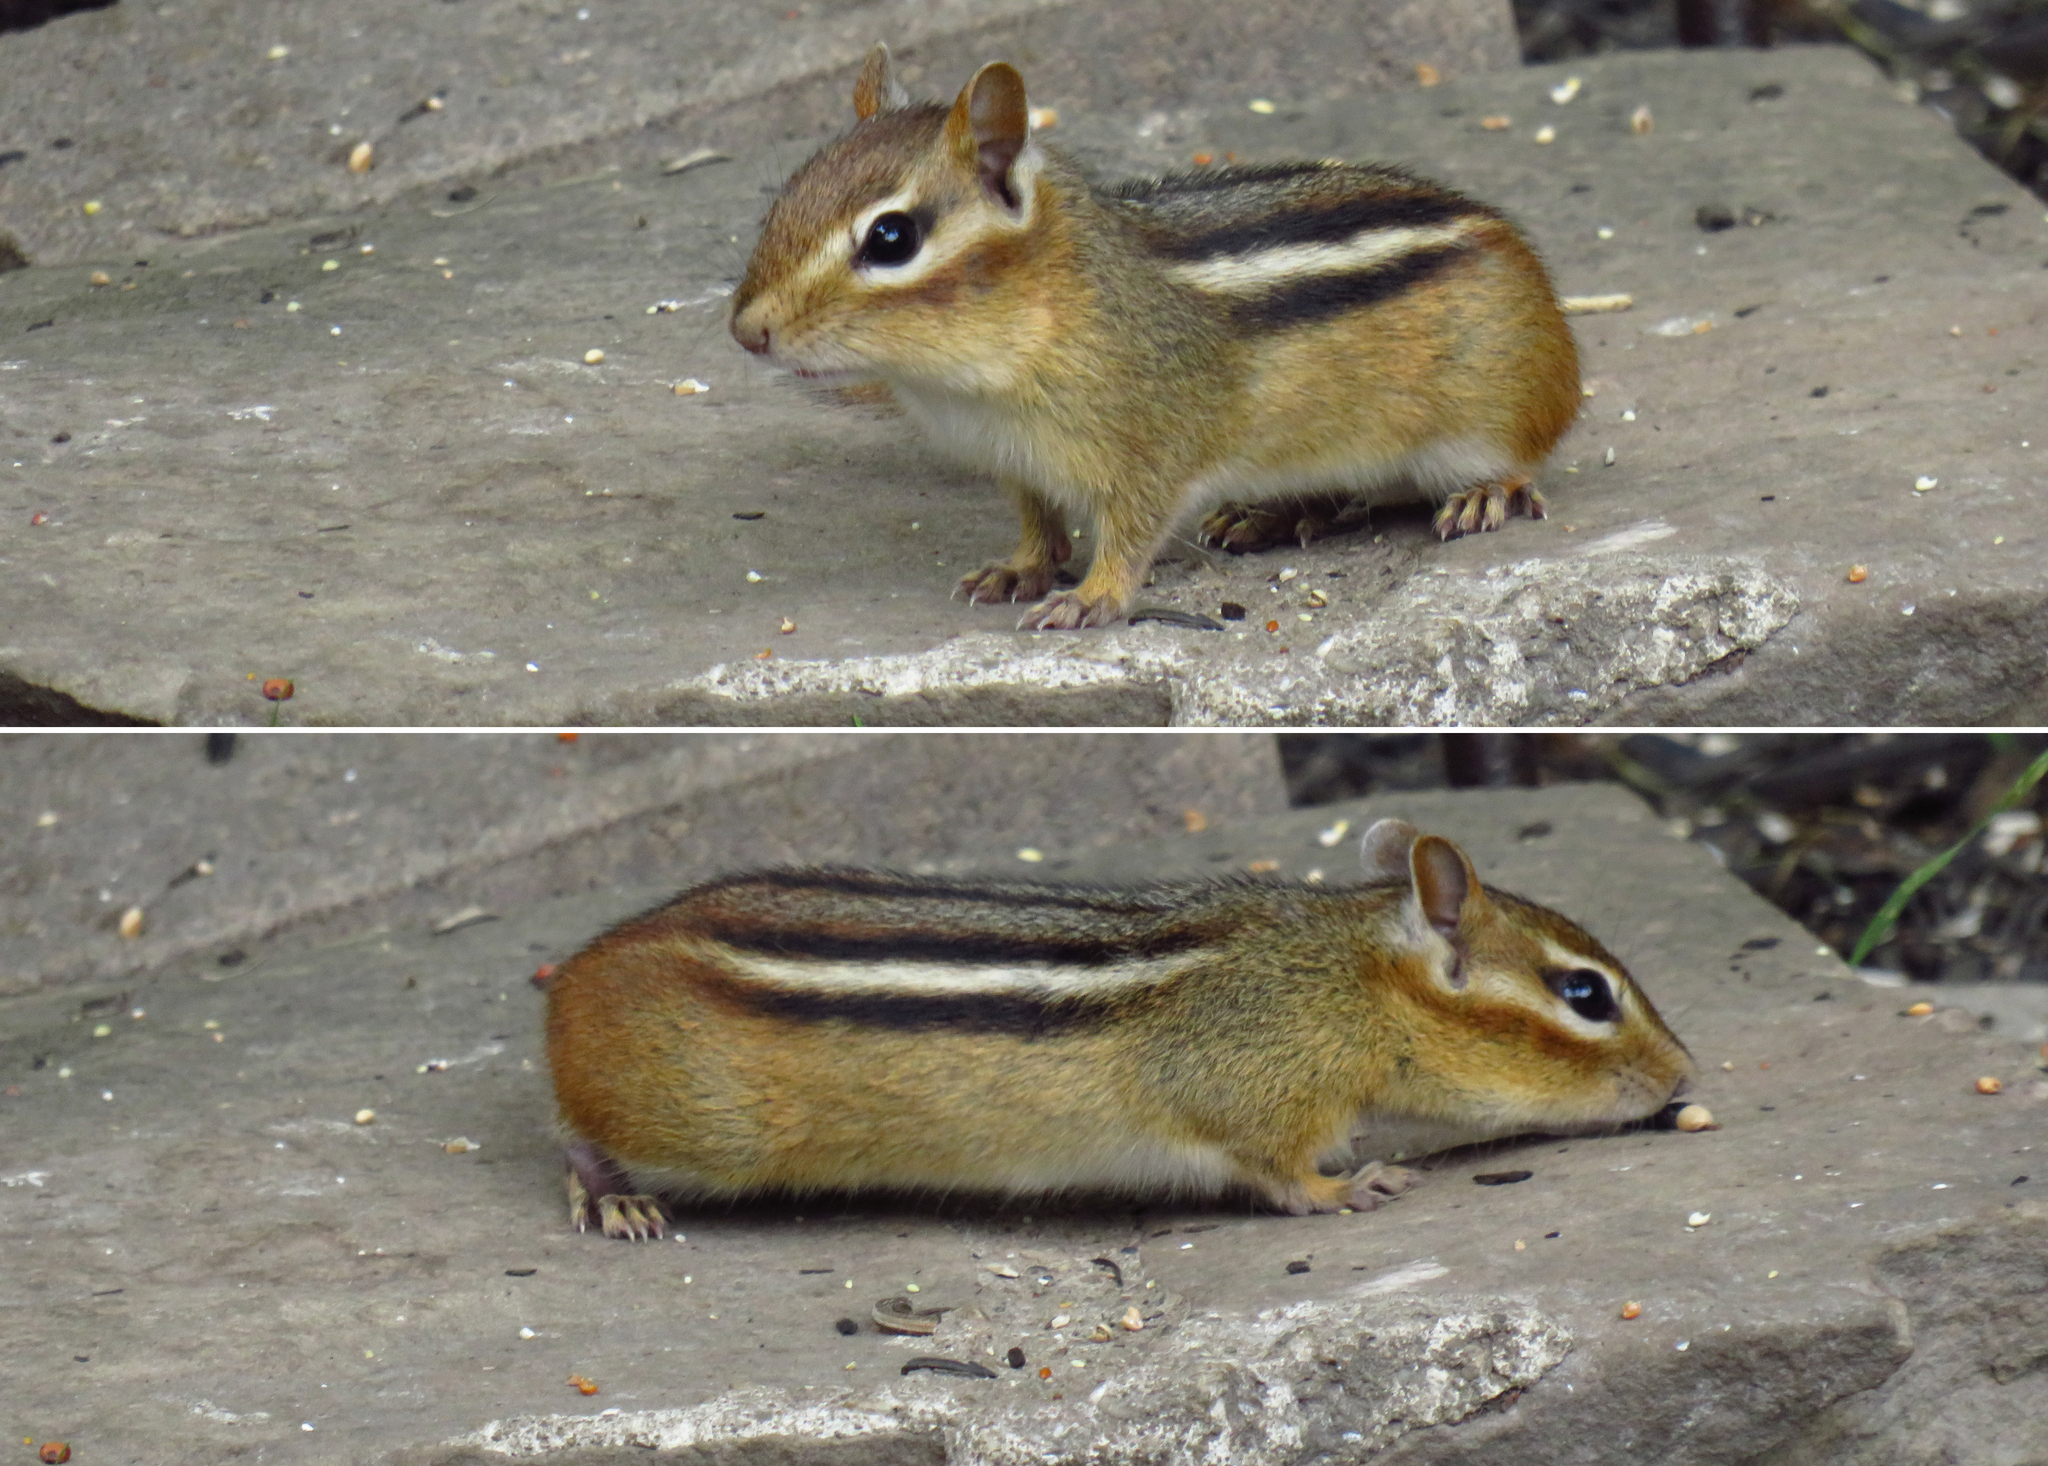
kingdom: Animalia
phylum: Chordata
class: Mammalia
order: Rodentia
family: Sciuridae
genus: Tamias
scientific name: Tamias striatus
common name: Eastern chipmunk
